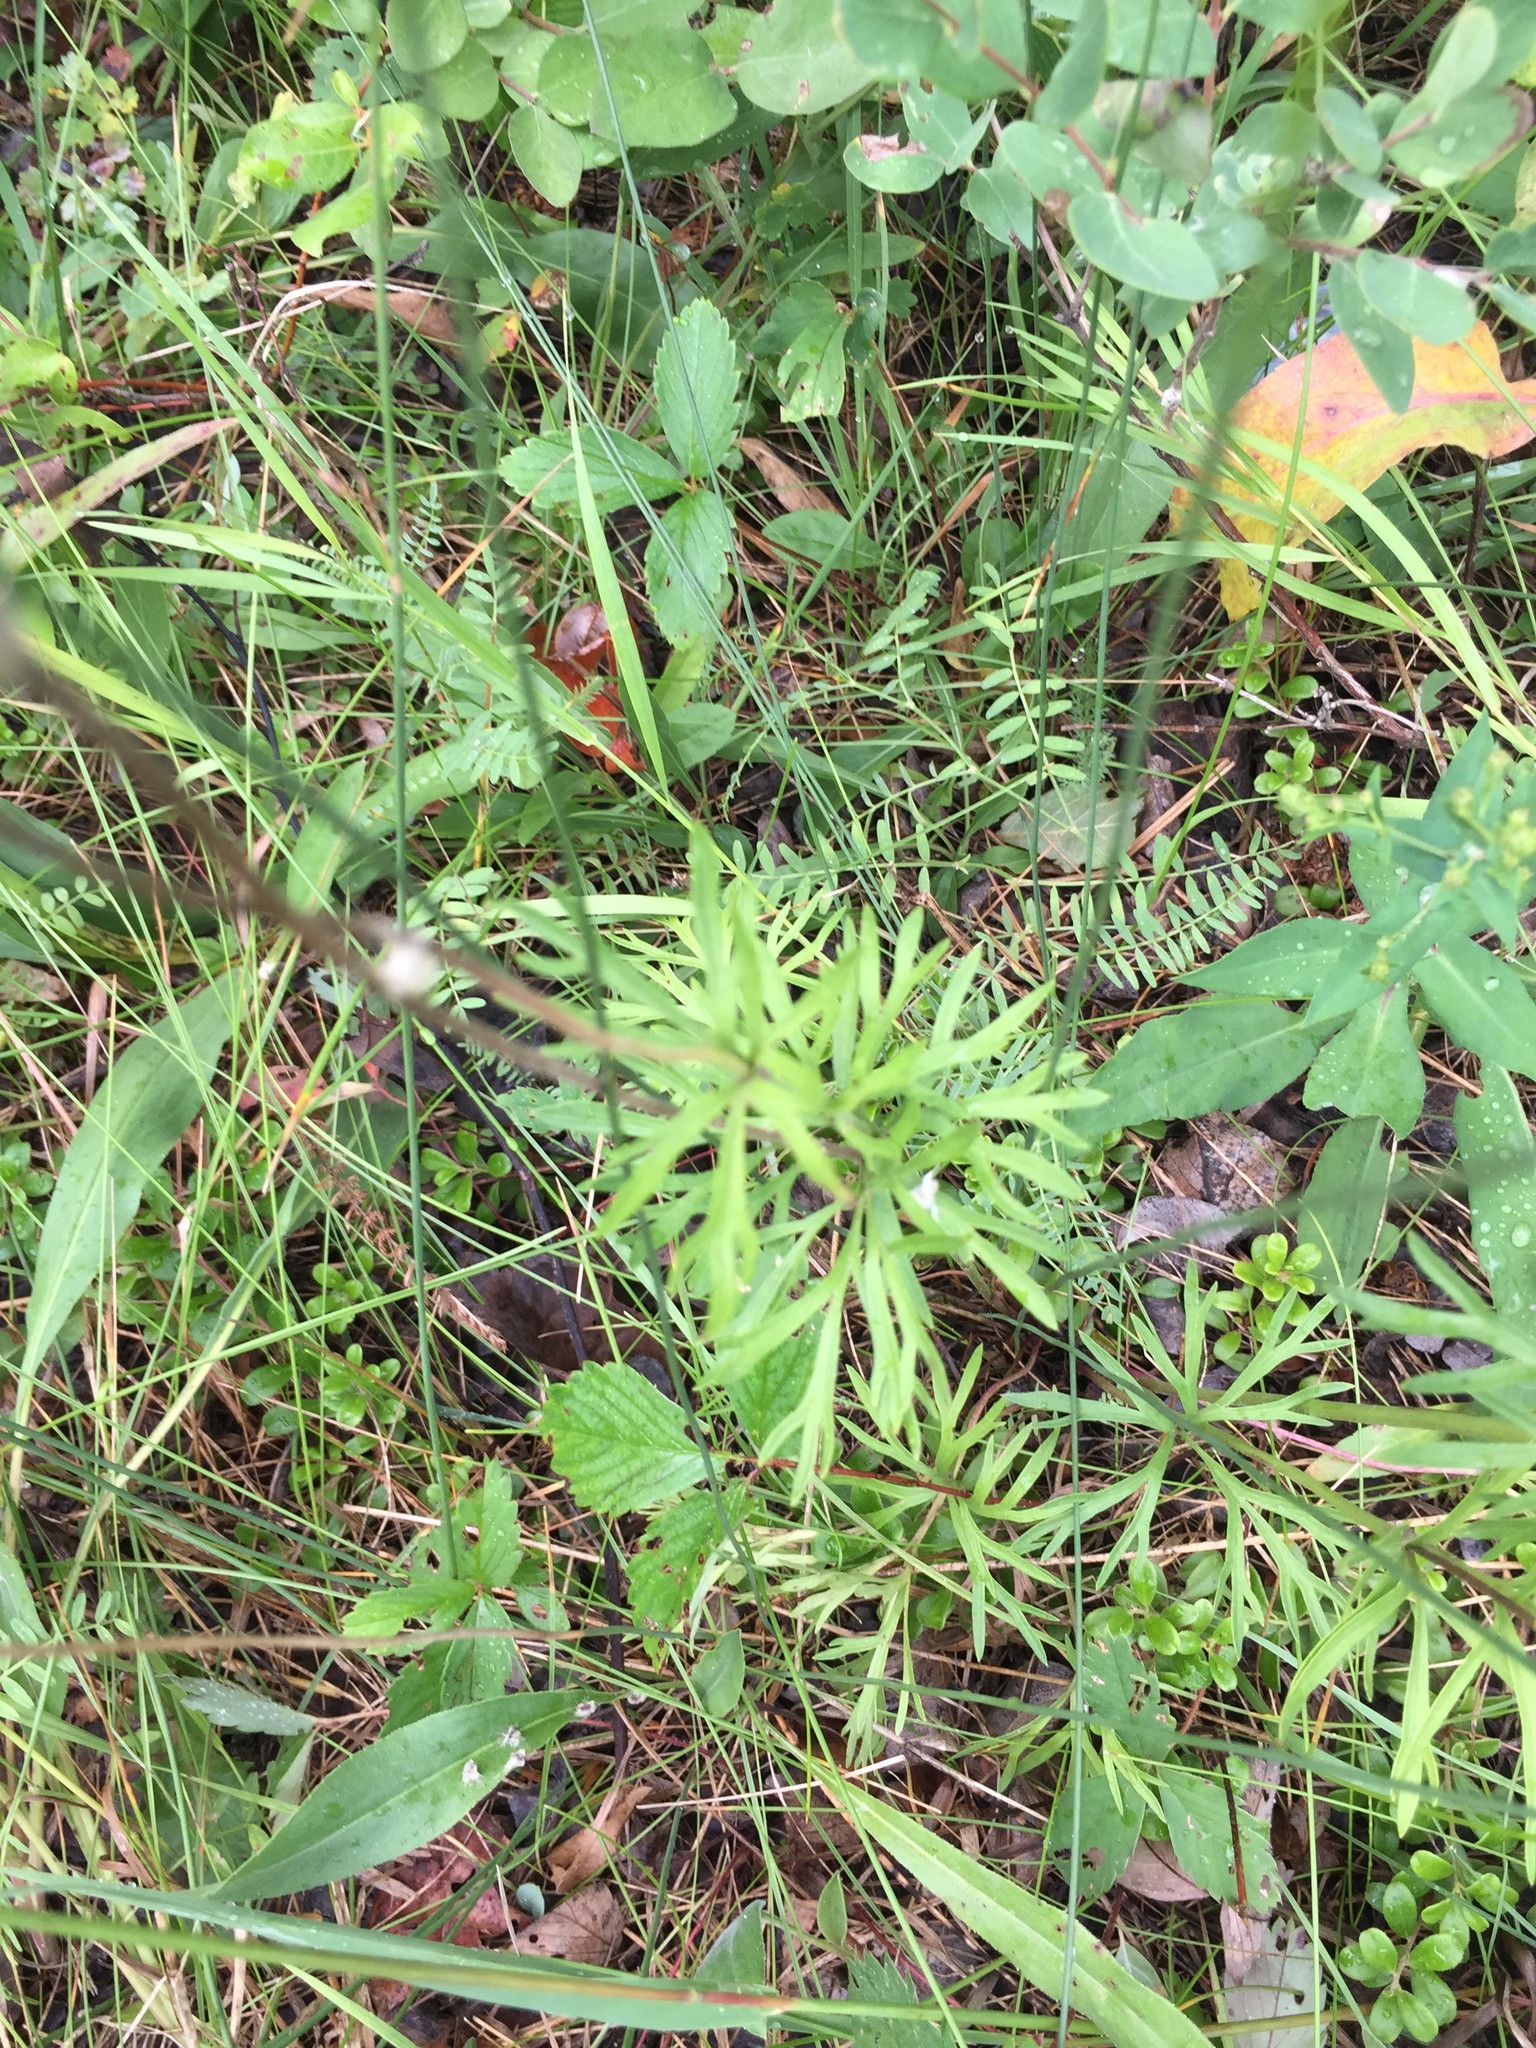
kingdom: Plantae
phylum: Tracheophyta
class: Magnoliopsida
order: Ranunculales
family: Ranunculaceae
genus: Anemone
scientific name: Anemone multifida
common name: Bird's-foot anemone
